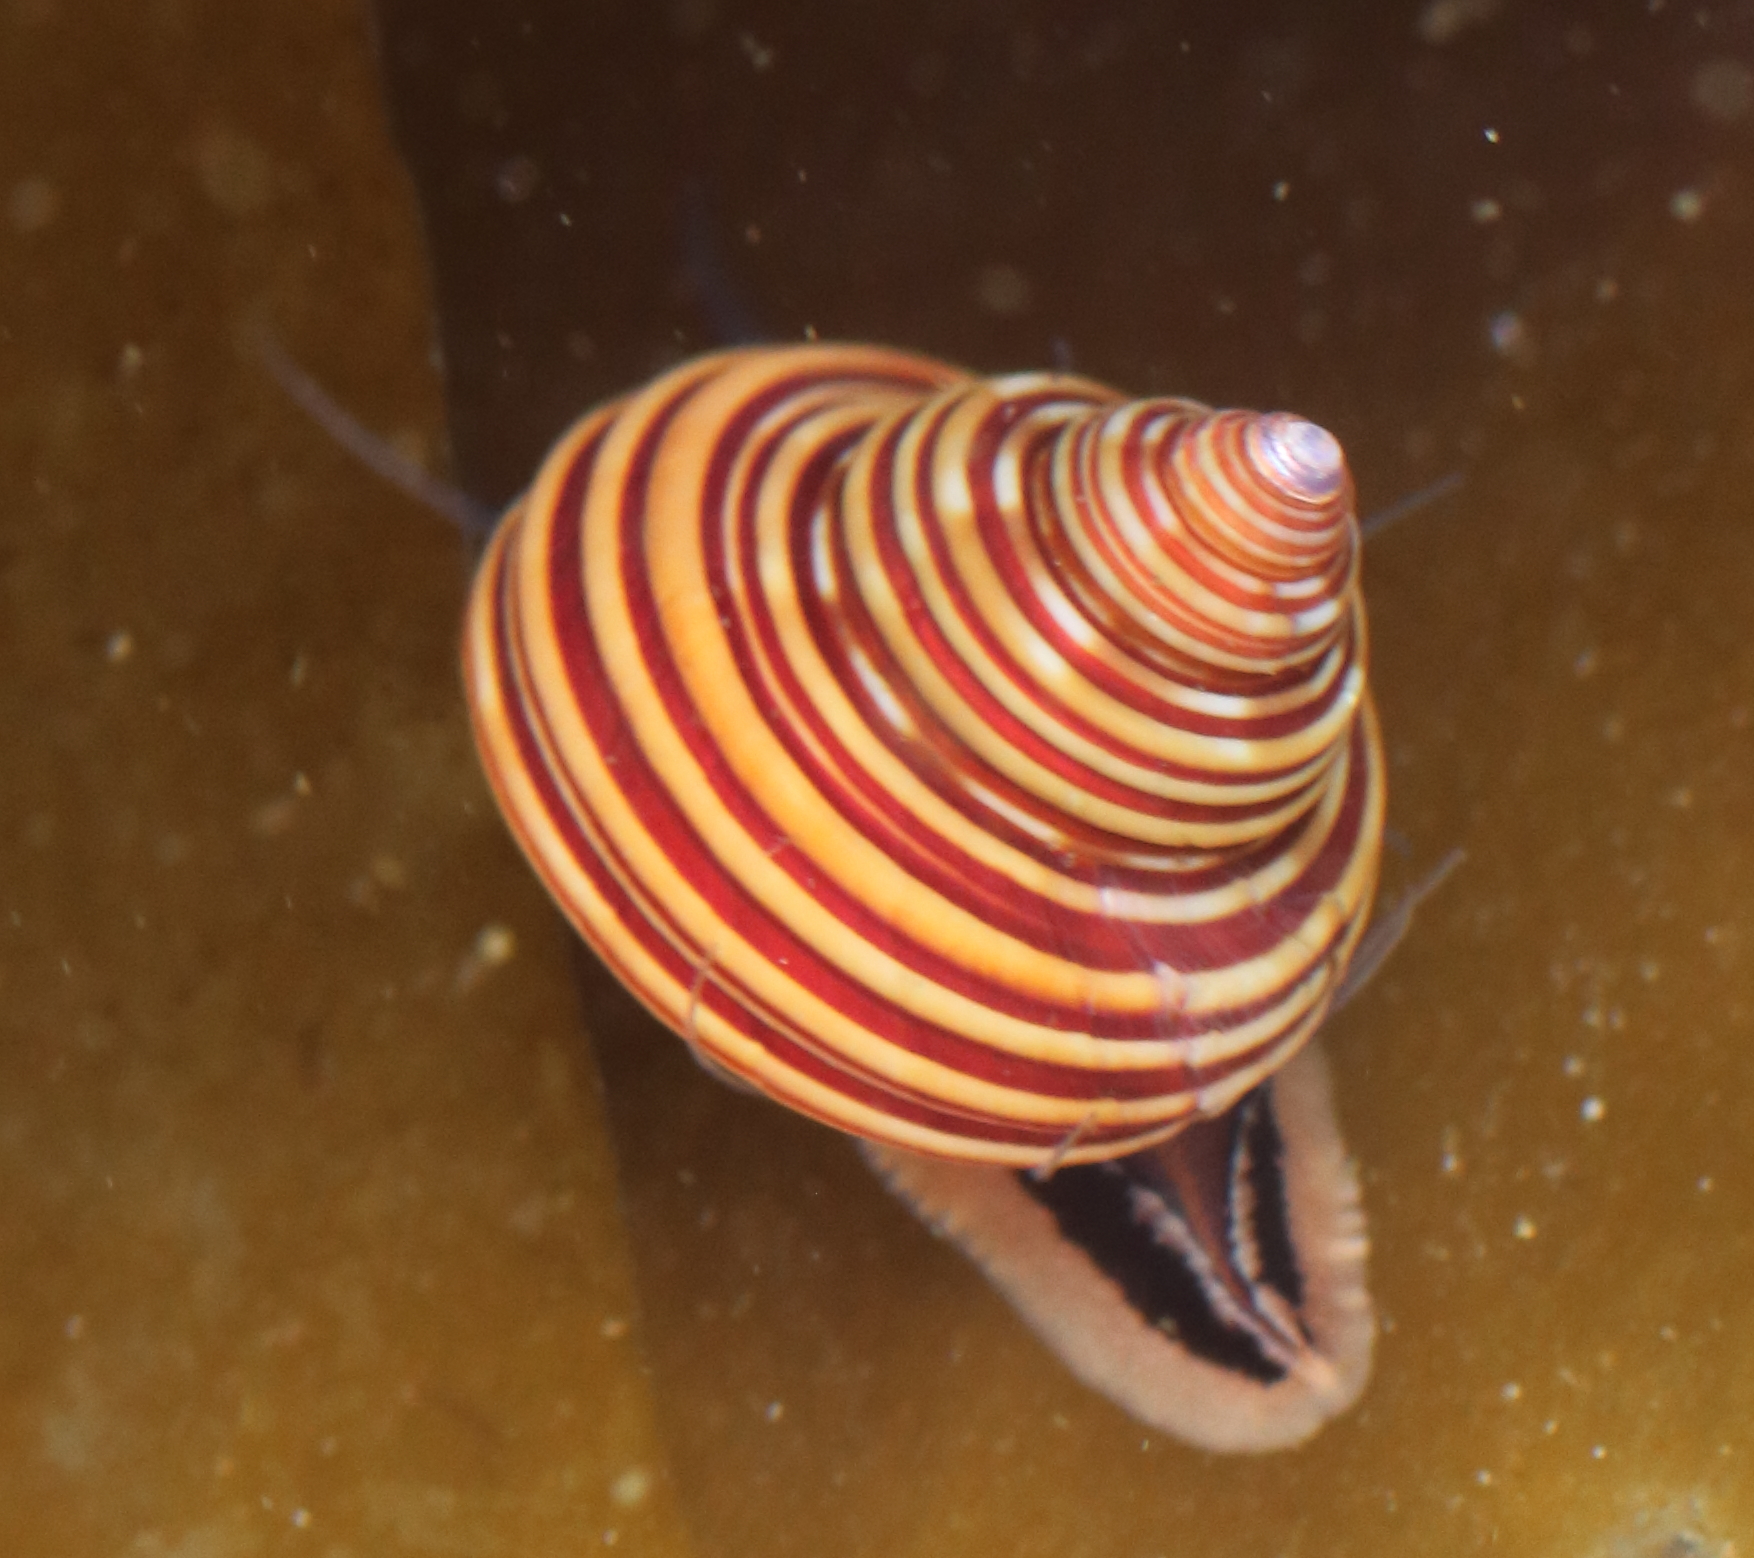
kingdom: Animalia
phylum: Mollusca
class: Gastropoda
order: Trochida
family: Calliostomatidae
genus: Calliostoma
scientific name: Calliostoma ligatum
